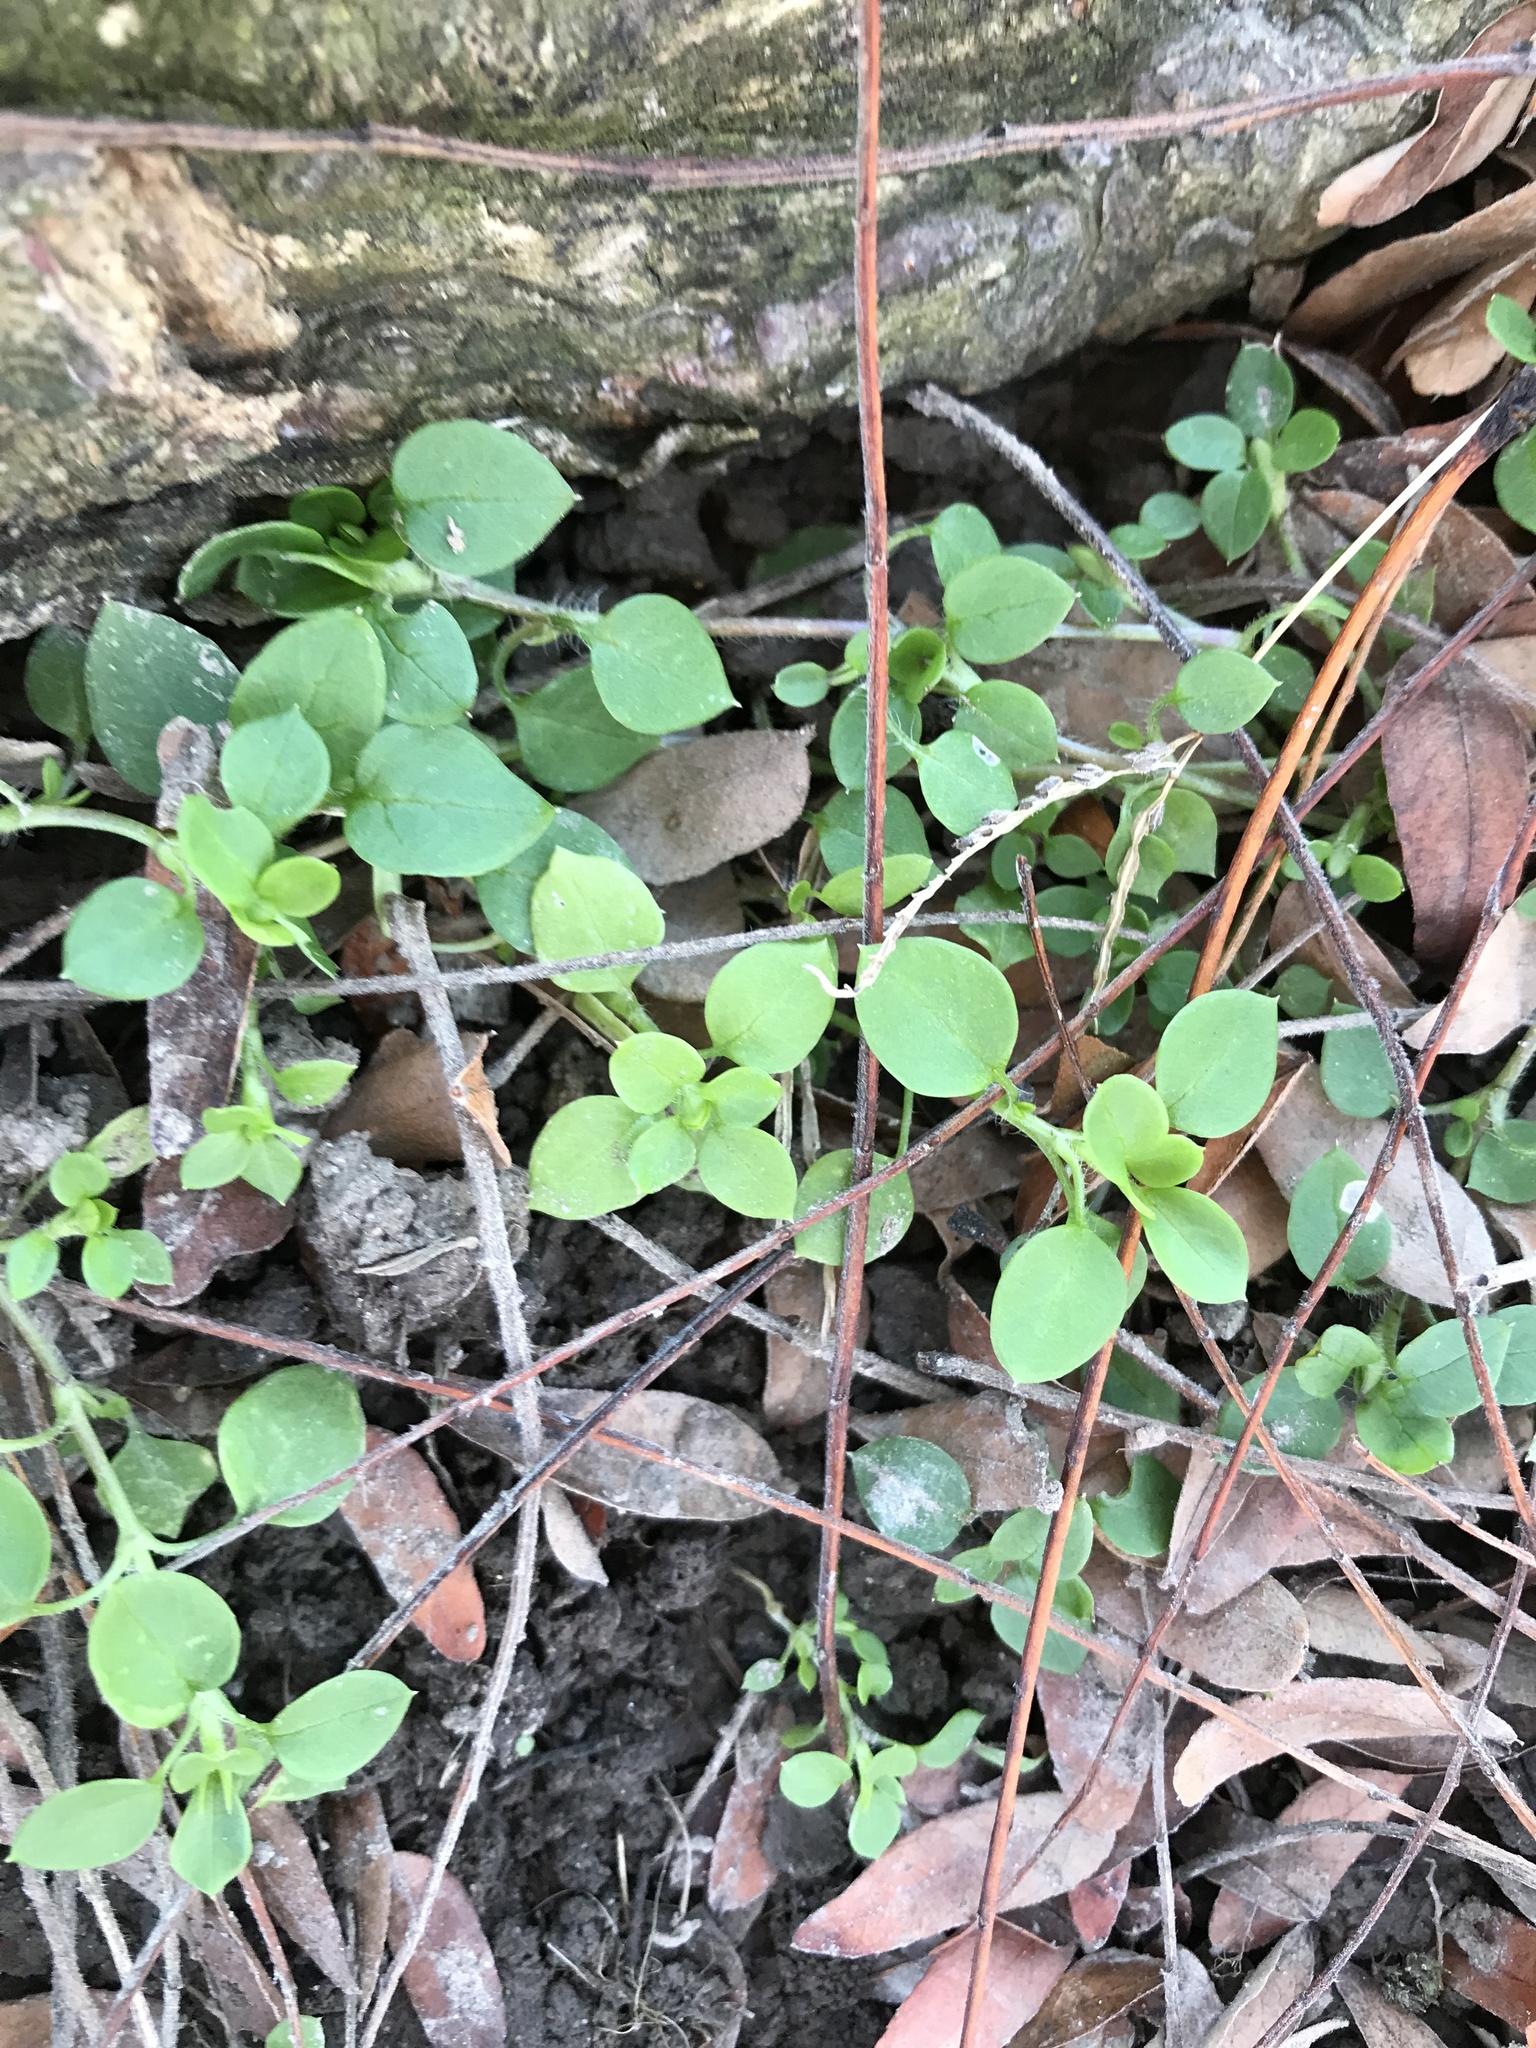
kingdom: Plantae
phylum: Tracheophyta
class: Magnoliopsida
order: Caryophyllales
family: Caryophyllaceae
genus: Stellaria
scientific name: Stellaria media
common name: Common chickweed
